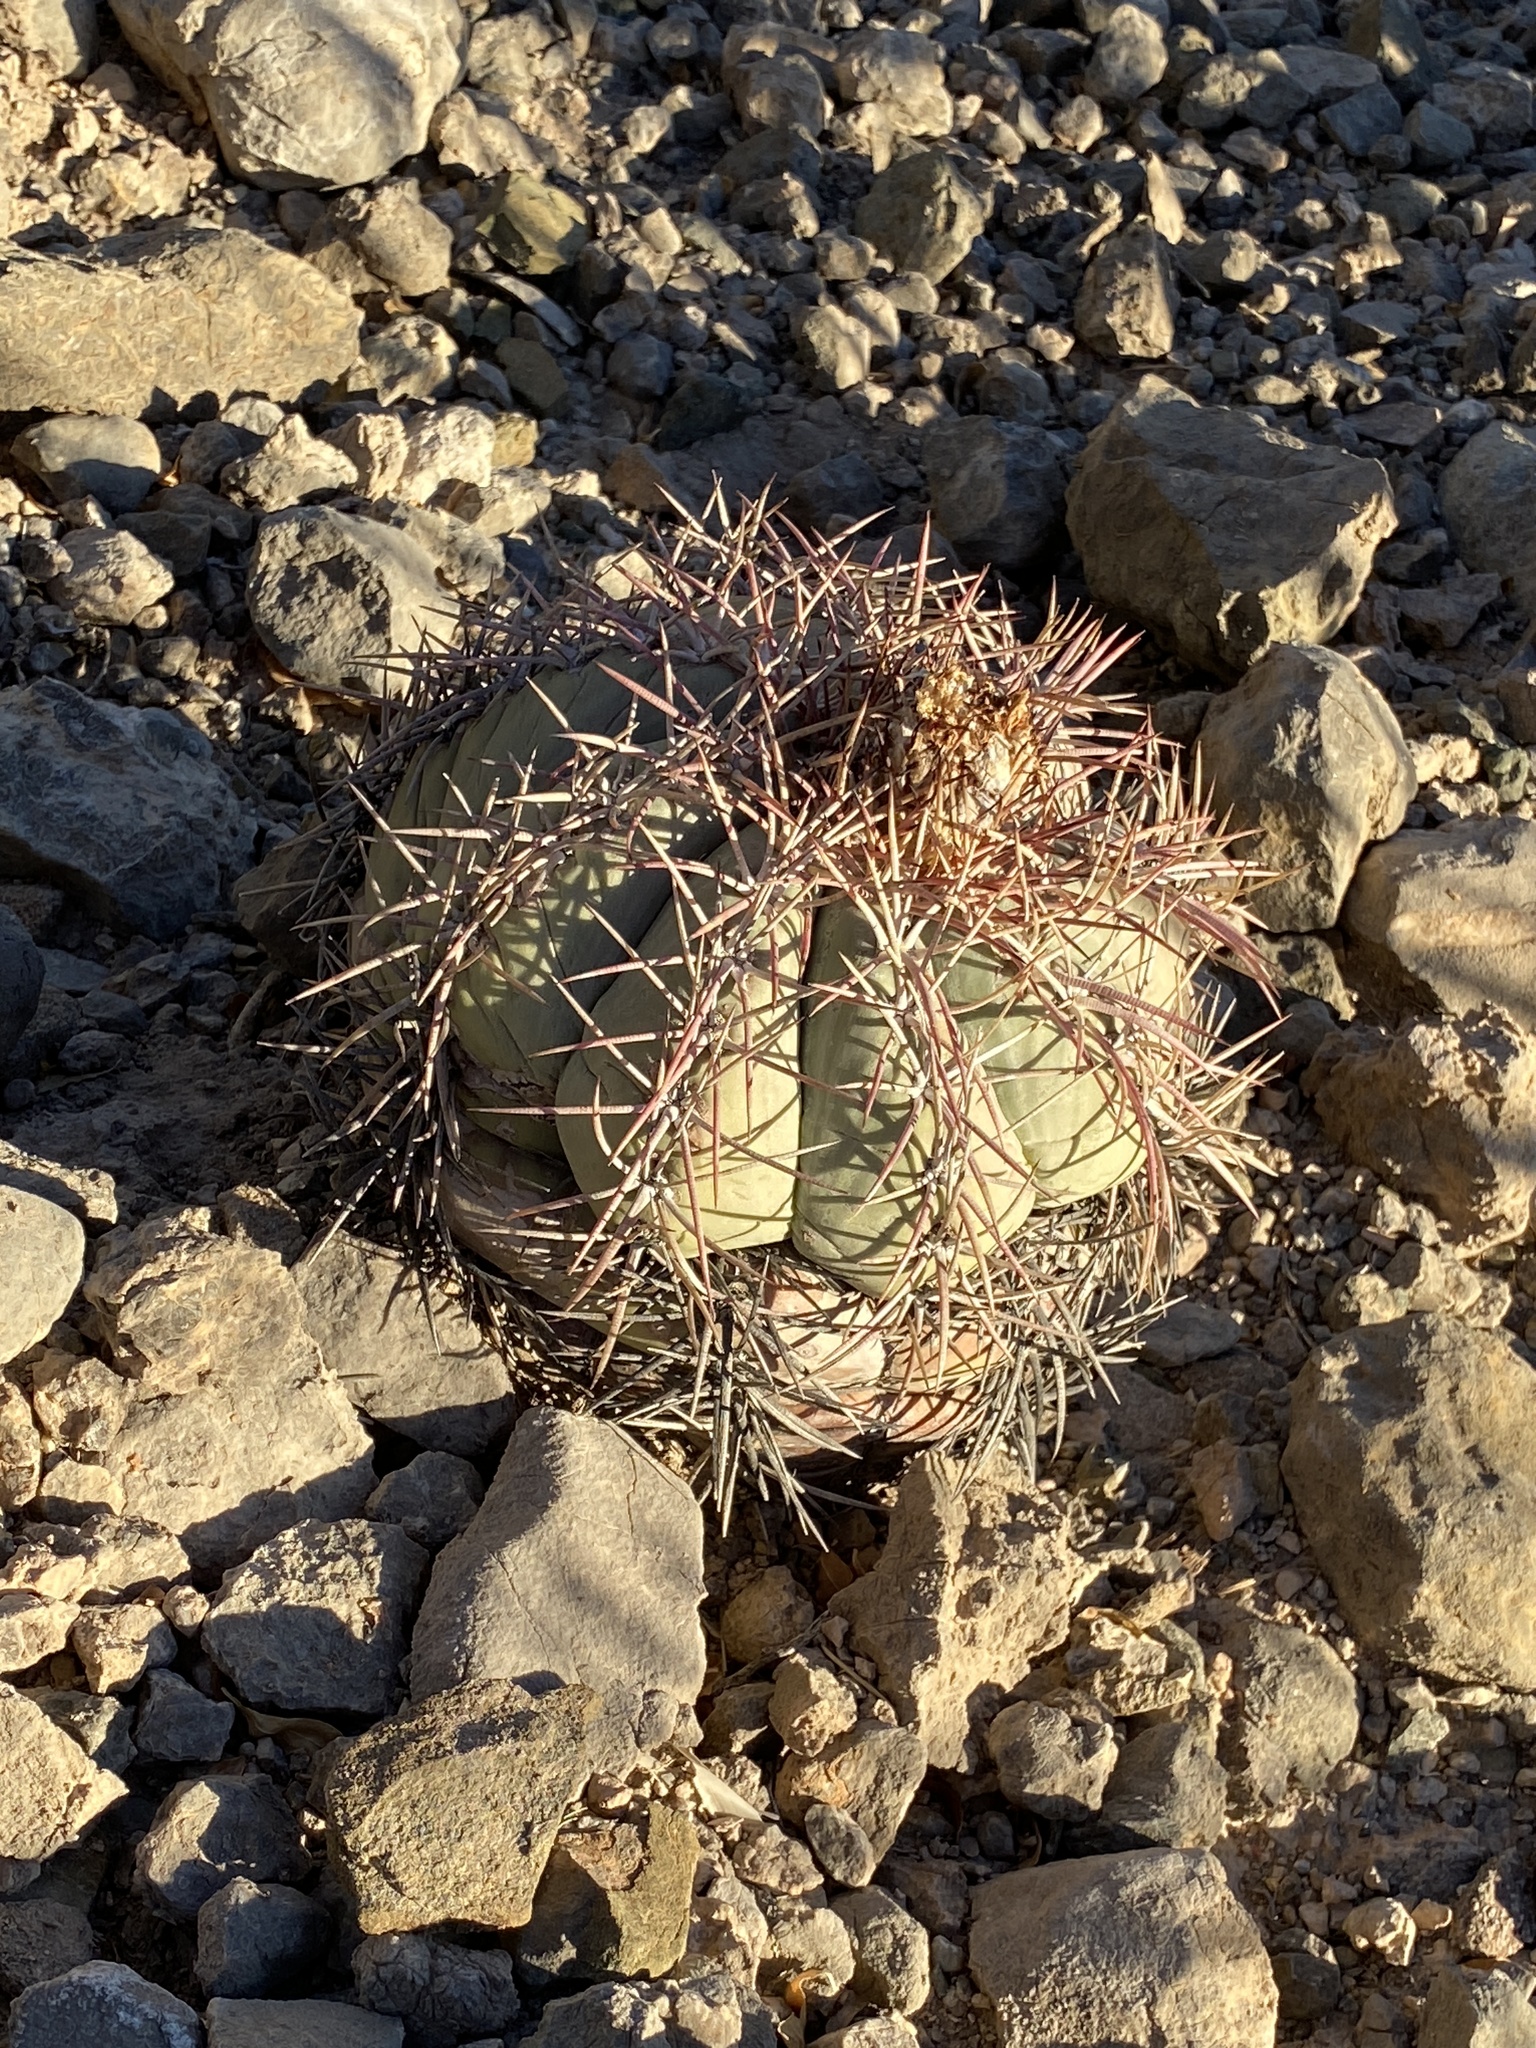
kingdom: Plantae
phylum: Tracheophyta
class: Magnoliopsida
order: Caryophyllales
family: Cactaceae
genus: Echinocactus
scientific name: Echinocactus horizonthalonius
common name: Devilshead
